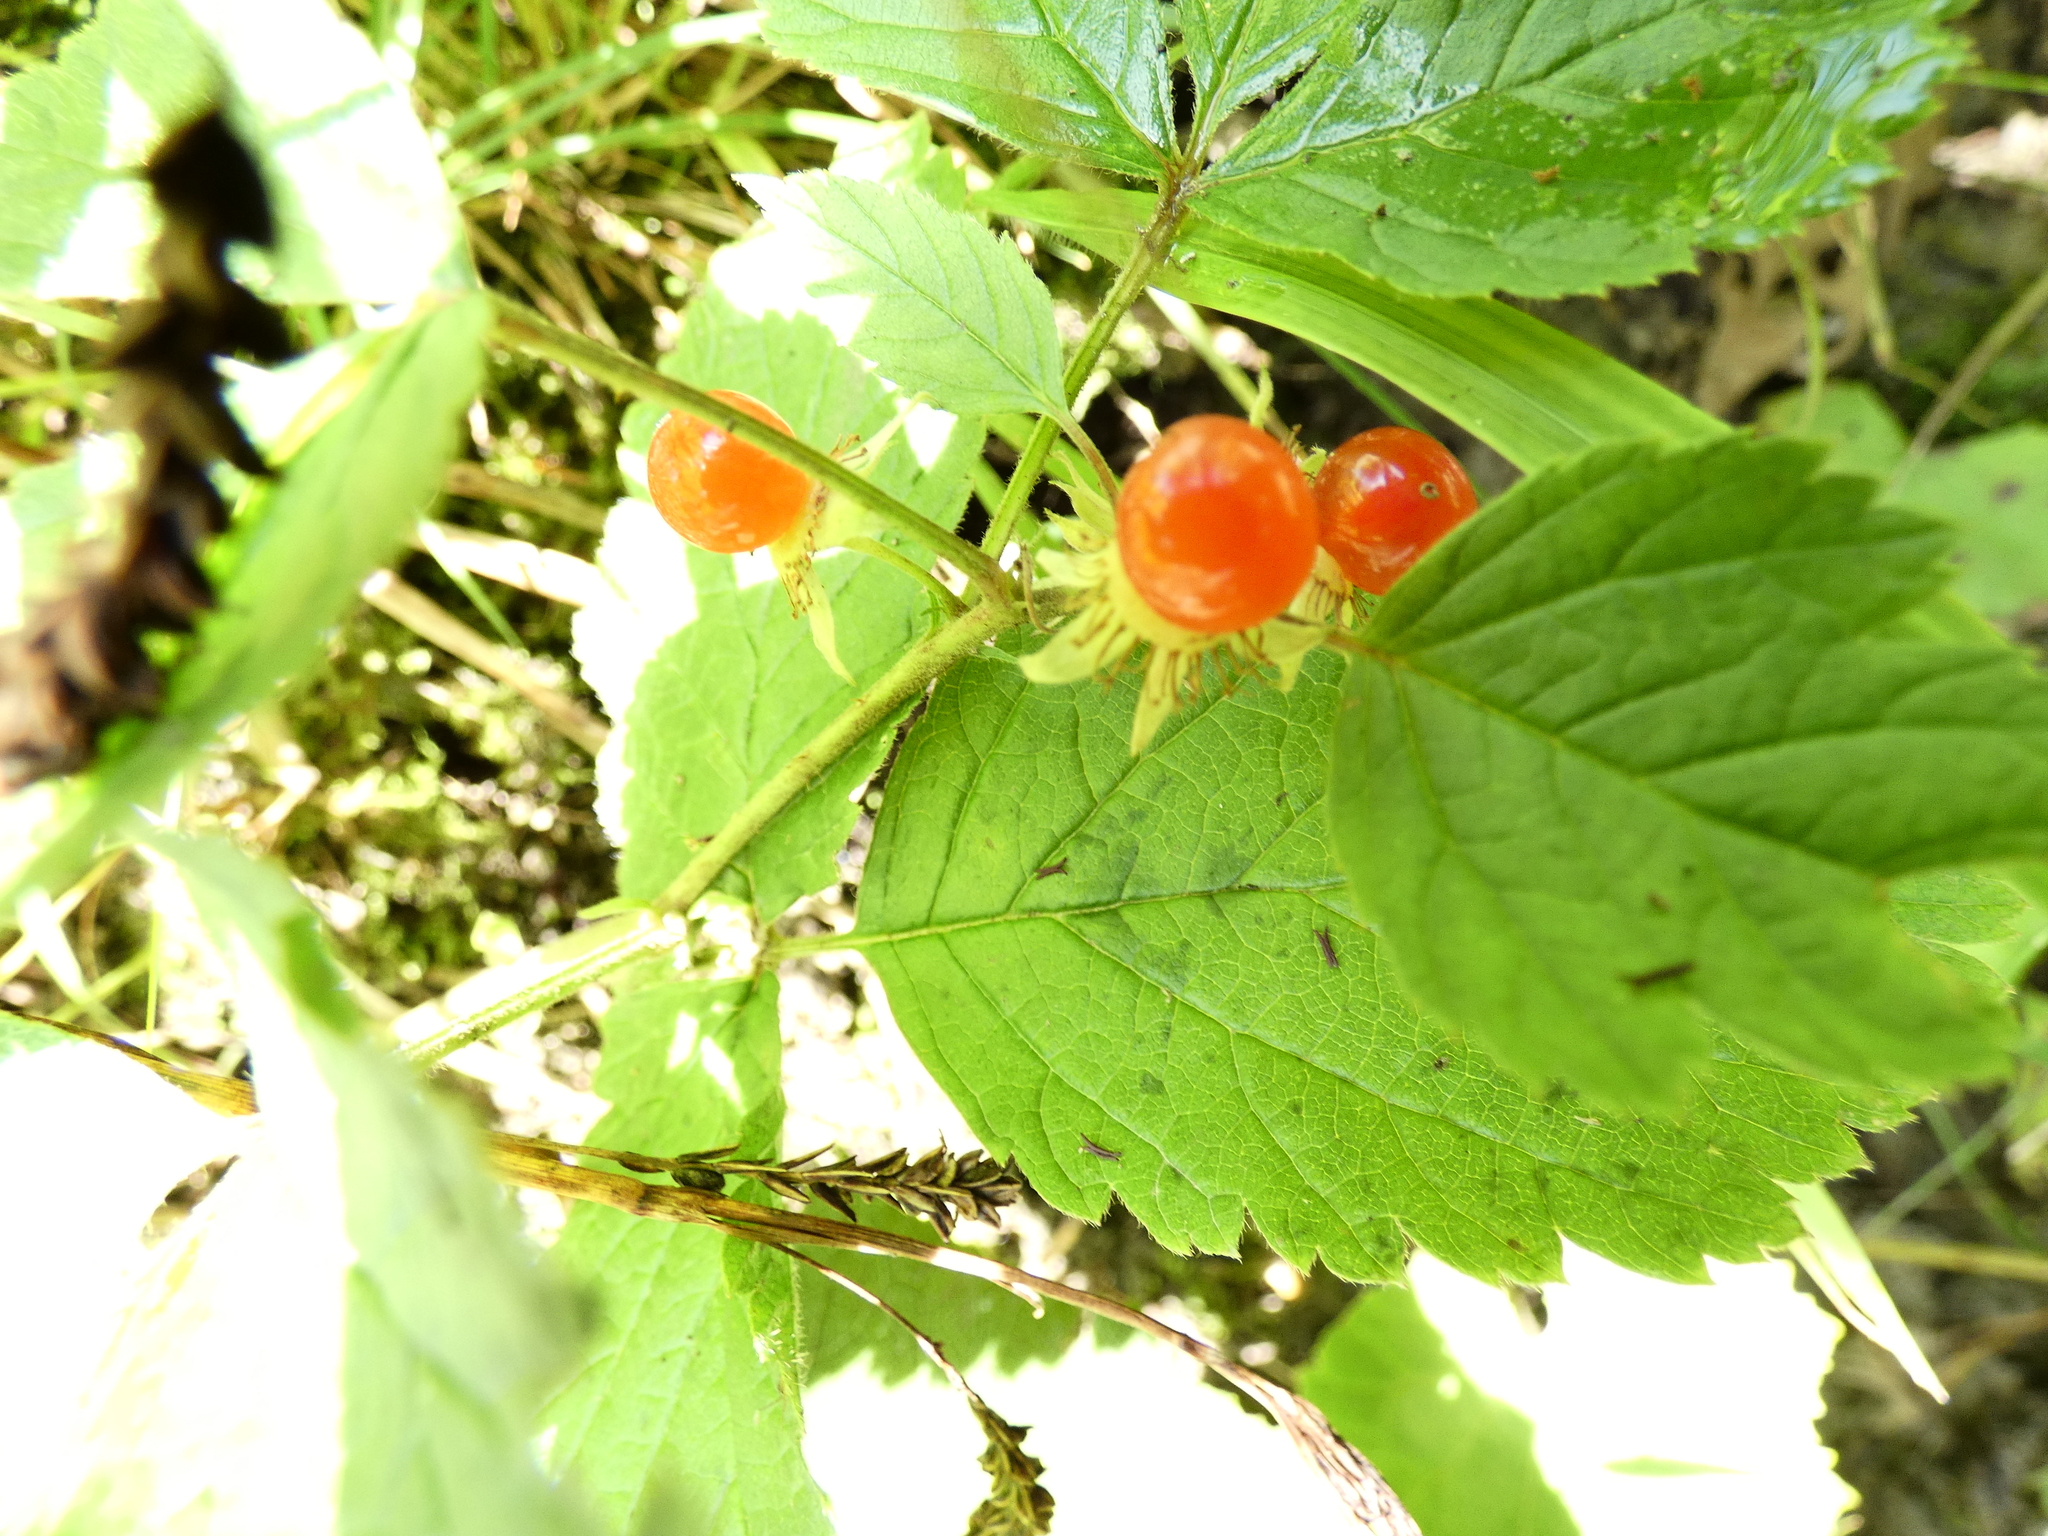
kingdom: Plantae
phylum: Tracheophyta
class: Magnoliopsida
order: Rosales
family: Rosaceae
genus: Rubus
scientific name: Rubus saxatilis
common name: Stone bramble
